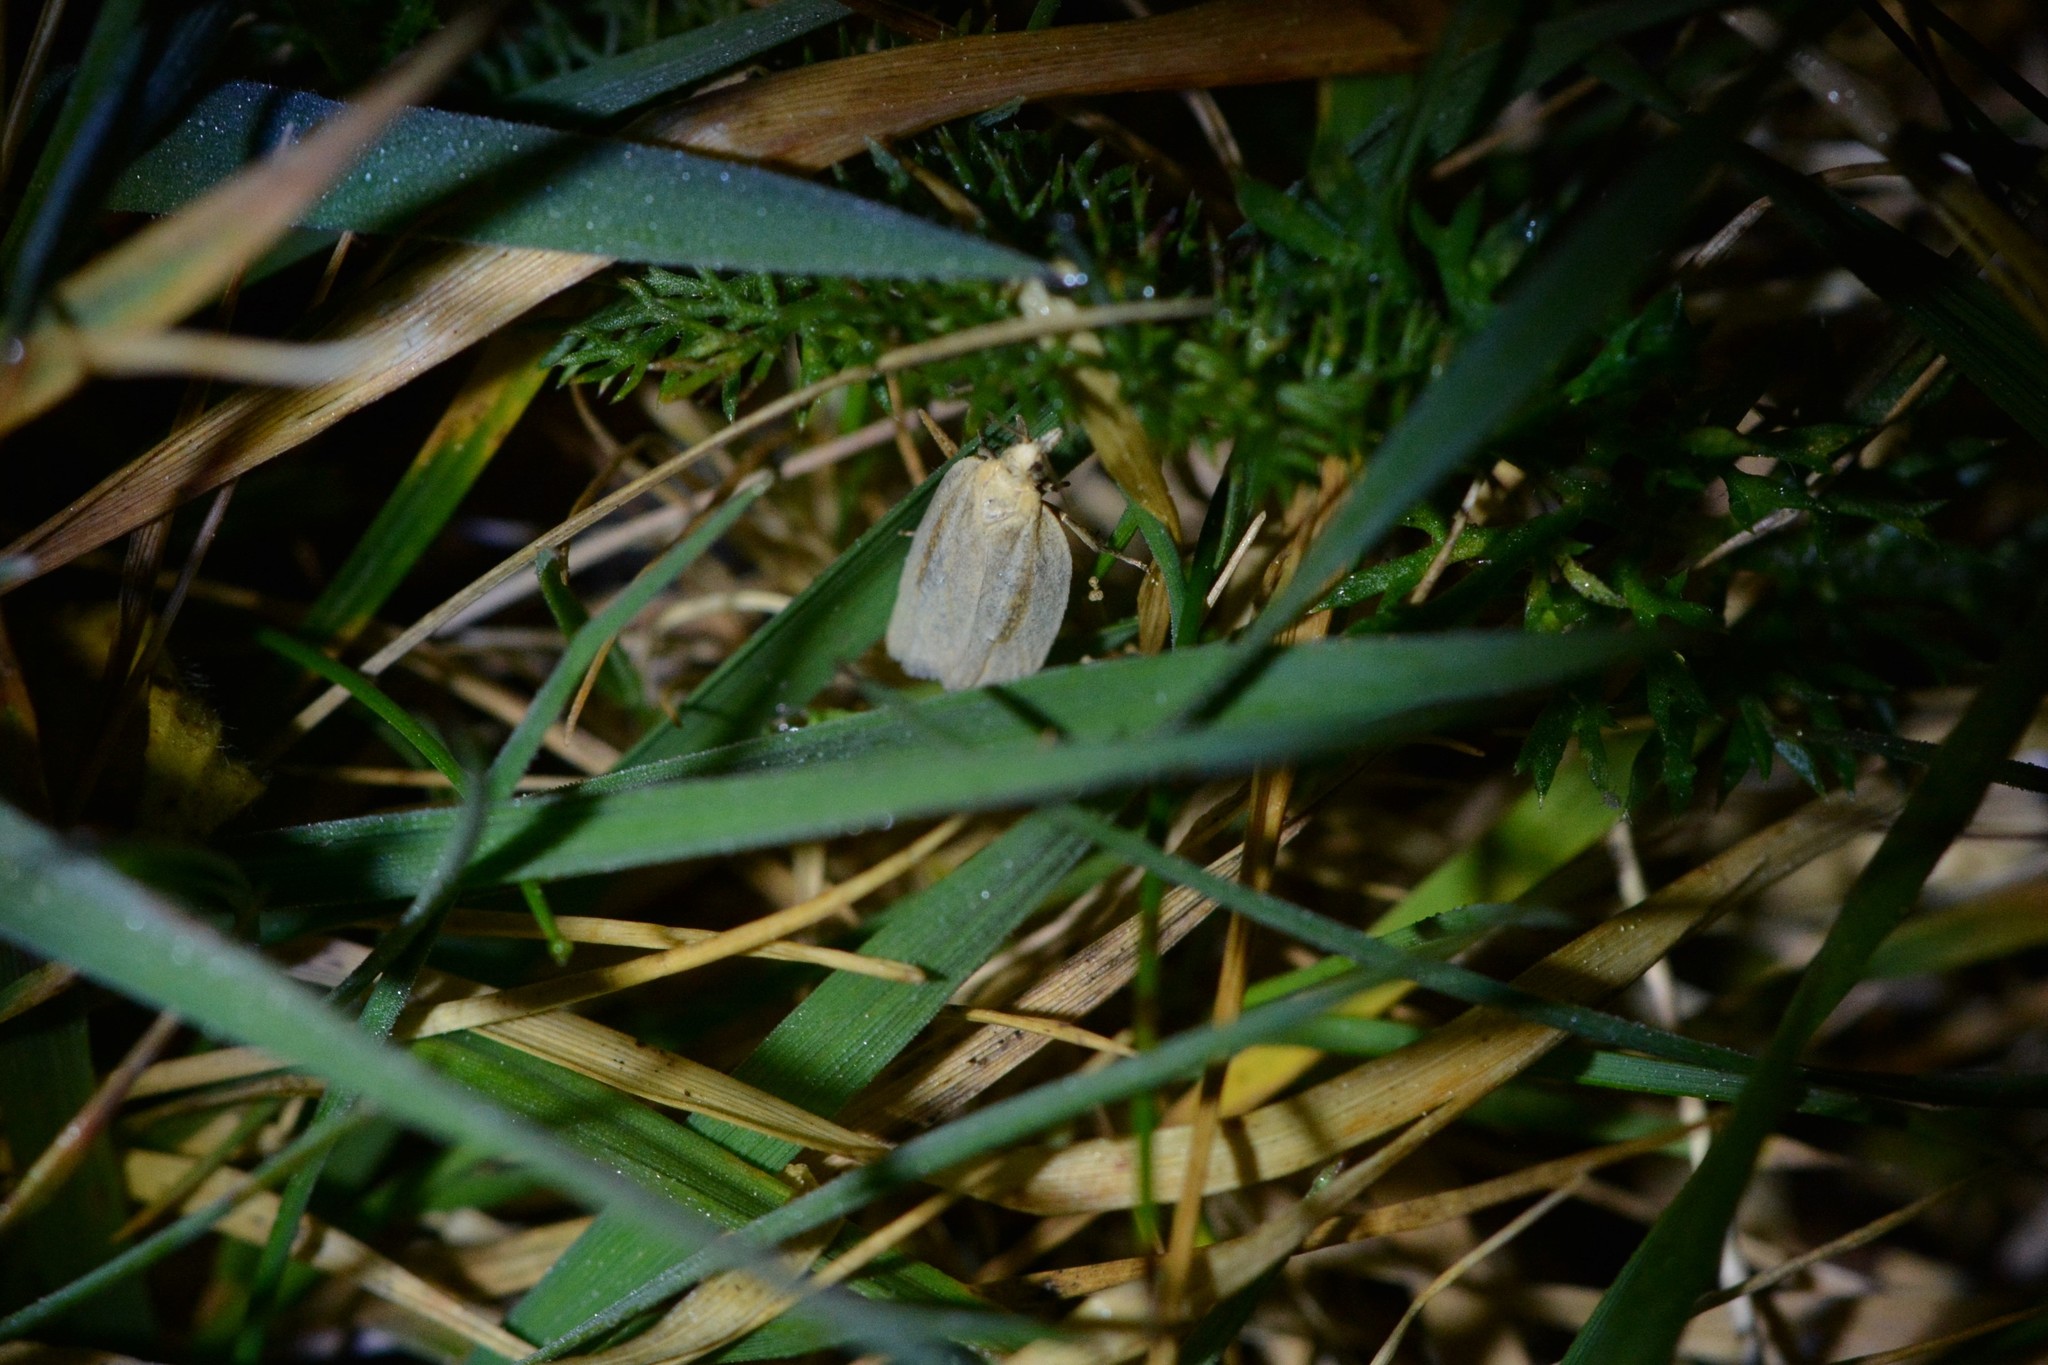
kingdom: Animalia
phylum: Arthropoda
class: Insecta
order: Lepidoptera
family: Tortricidae
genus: Clepsis
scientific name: Clepsis
